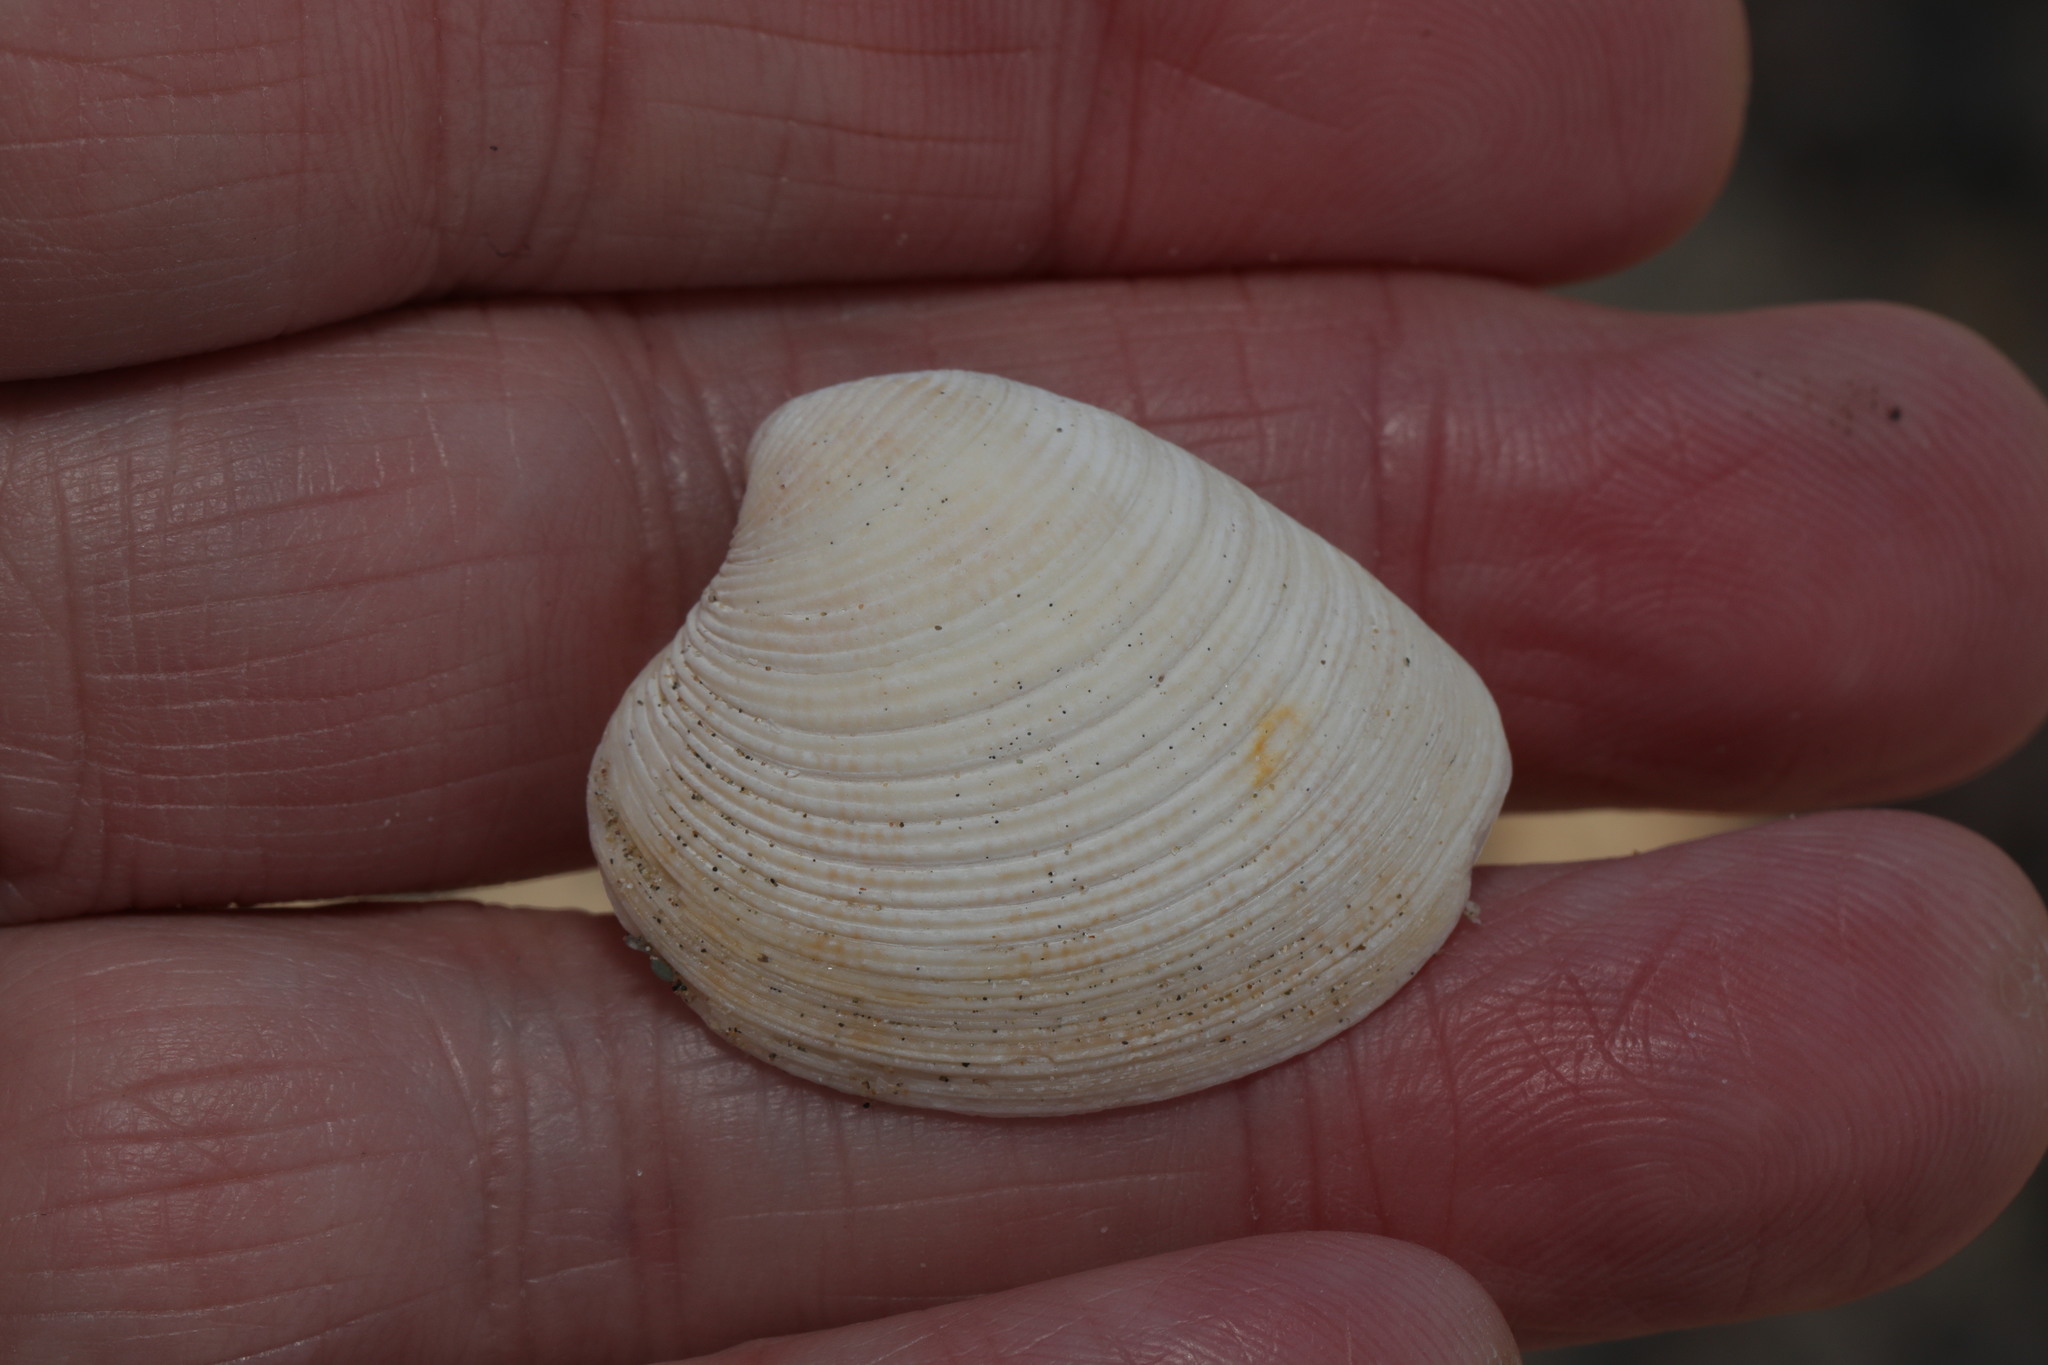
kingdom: Animalia
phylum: Mollusca
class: Bivalvia
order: Venerida
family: Veneridae
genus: Chamelea
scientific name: Chamelea striatula
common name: Striped venus
